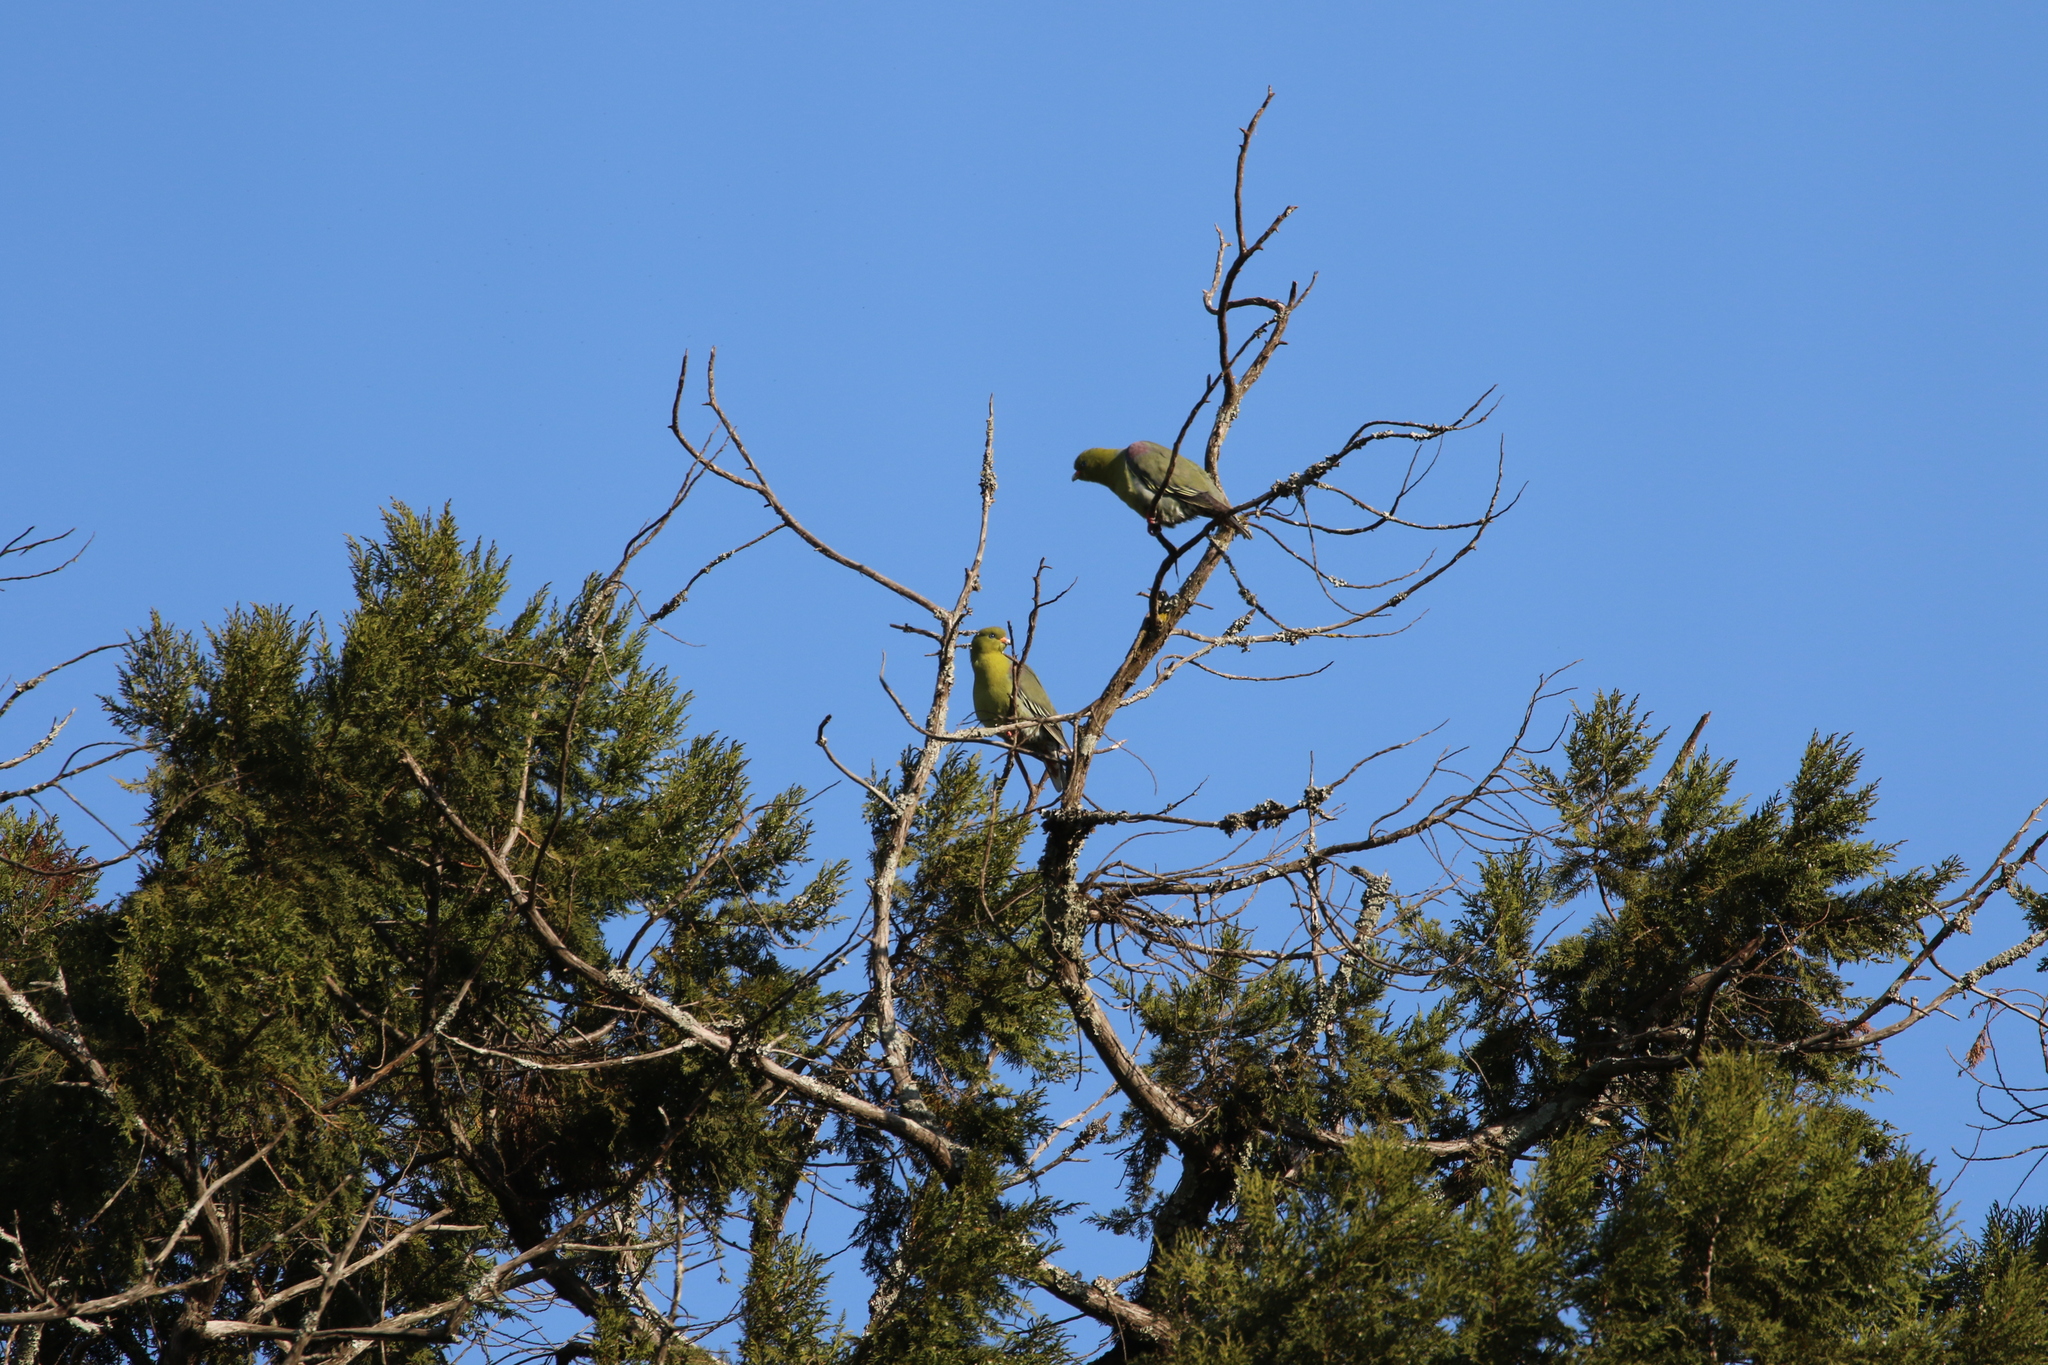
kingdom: Animalia
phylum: Chordata
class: Aves
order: Columbiformes
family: Columbidae
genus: Treron
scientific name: Treron calvus
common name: African green pigeon
